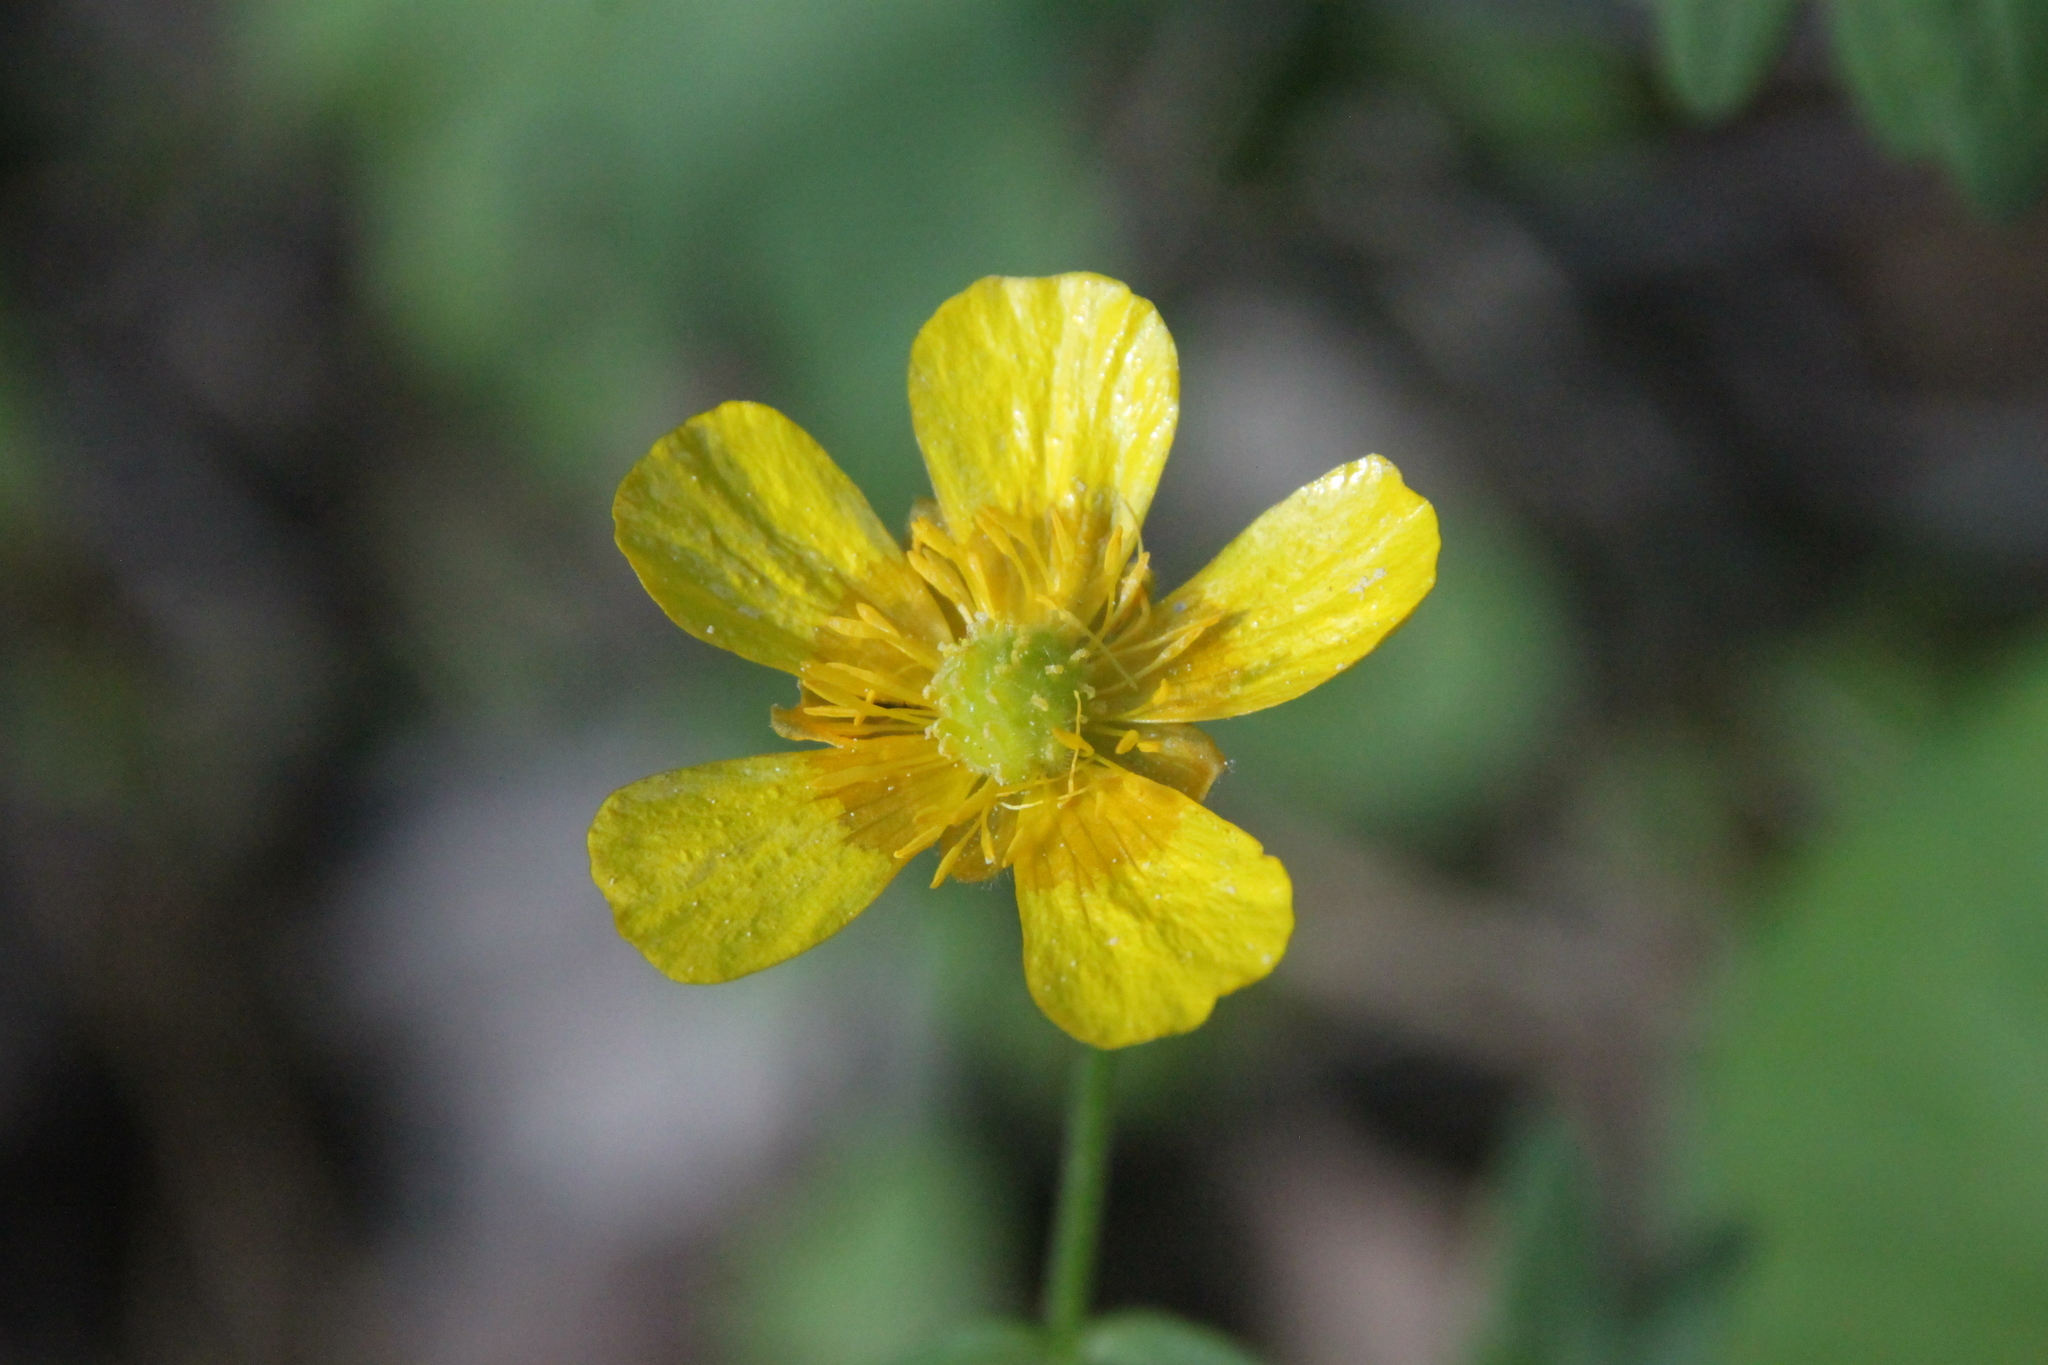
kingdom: Plantae
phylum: Tracheophyta
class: Magnoliopsida
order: Ranunculales
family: Ranunculaceae
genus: Ranunculus
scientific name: Ranunculus cassubicus
